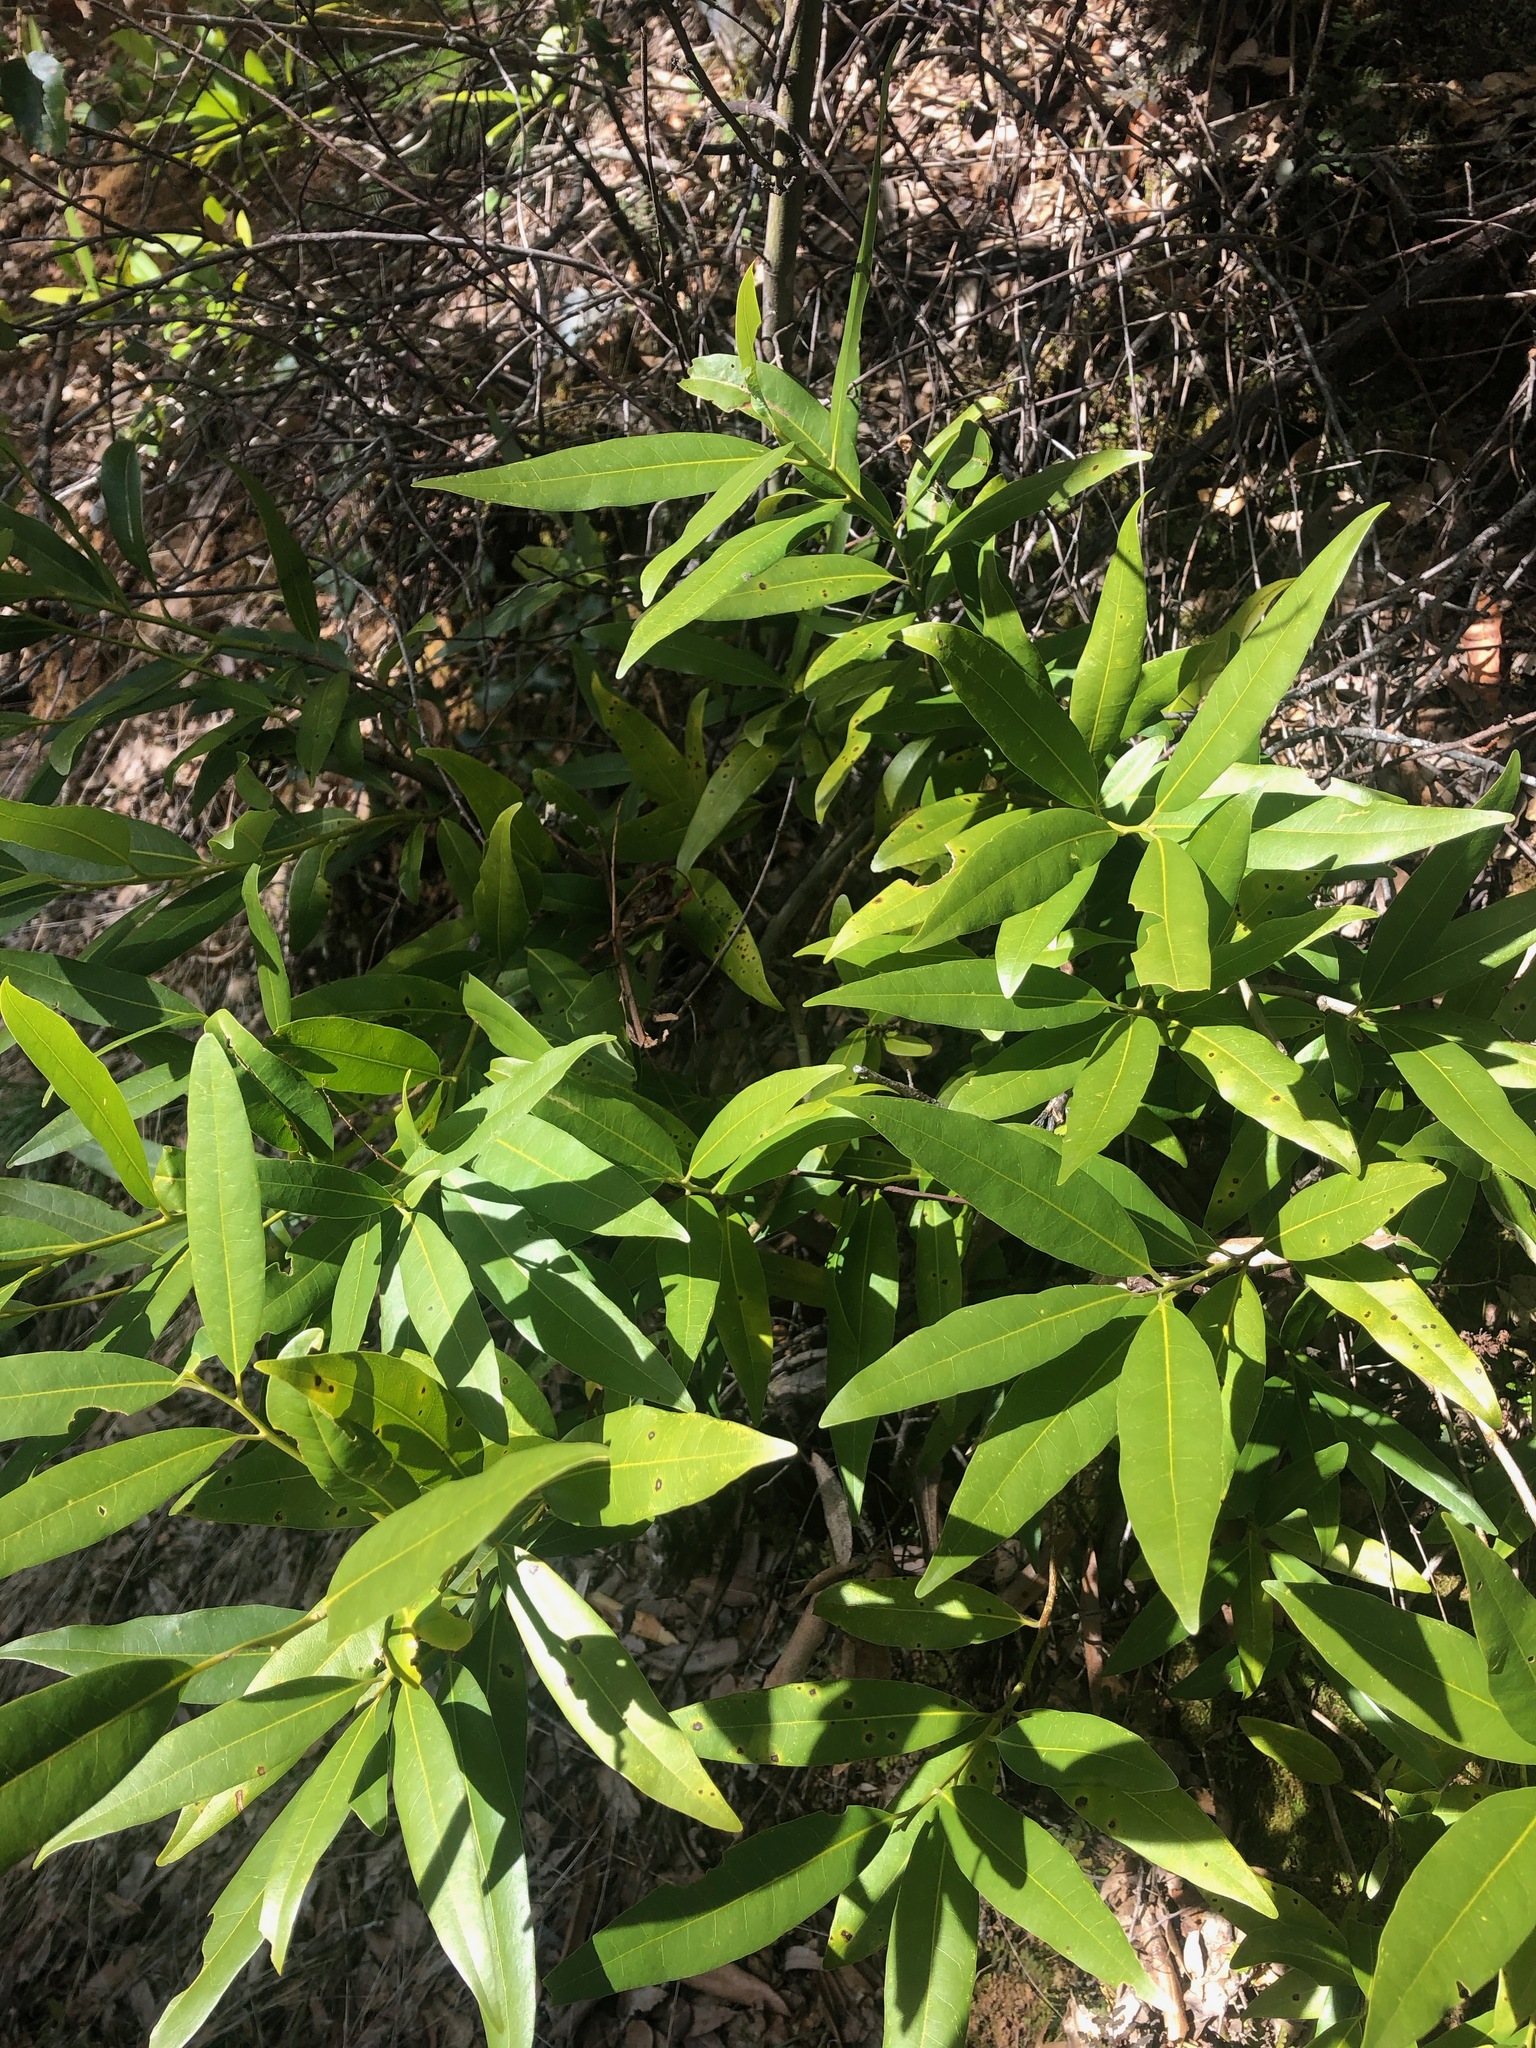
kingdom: Plantae
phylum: Tracheophyta
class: Magnoliopsida
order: Laurales
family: Lauraceae
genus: Umbellularia
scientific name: Umbellularia californica
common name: California bay
